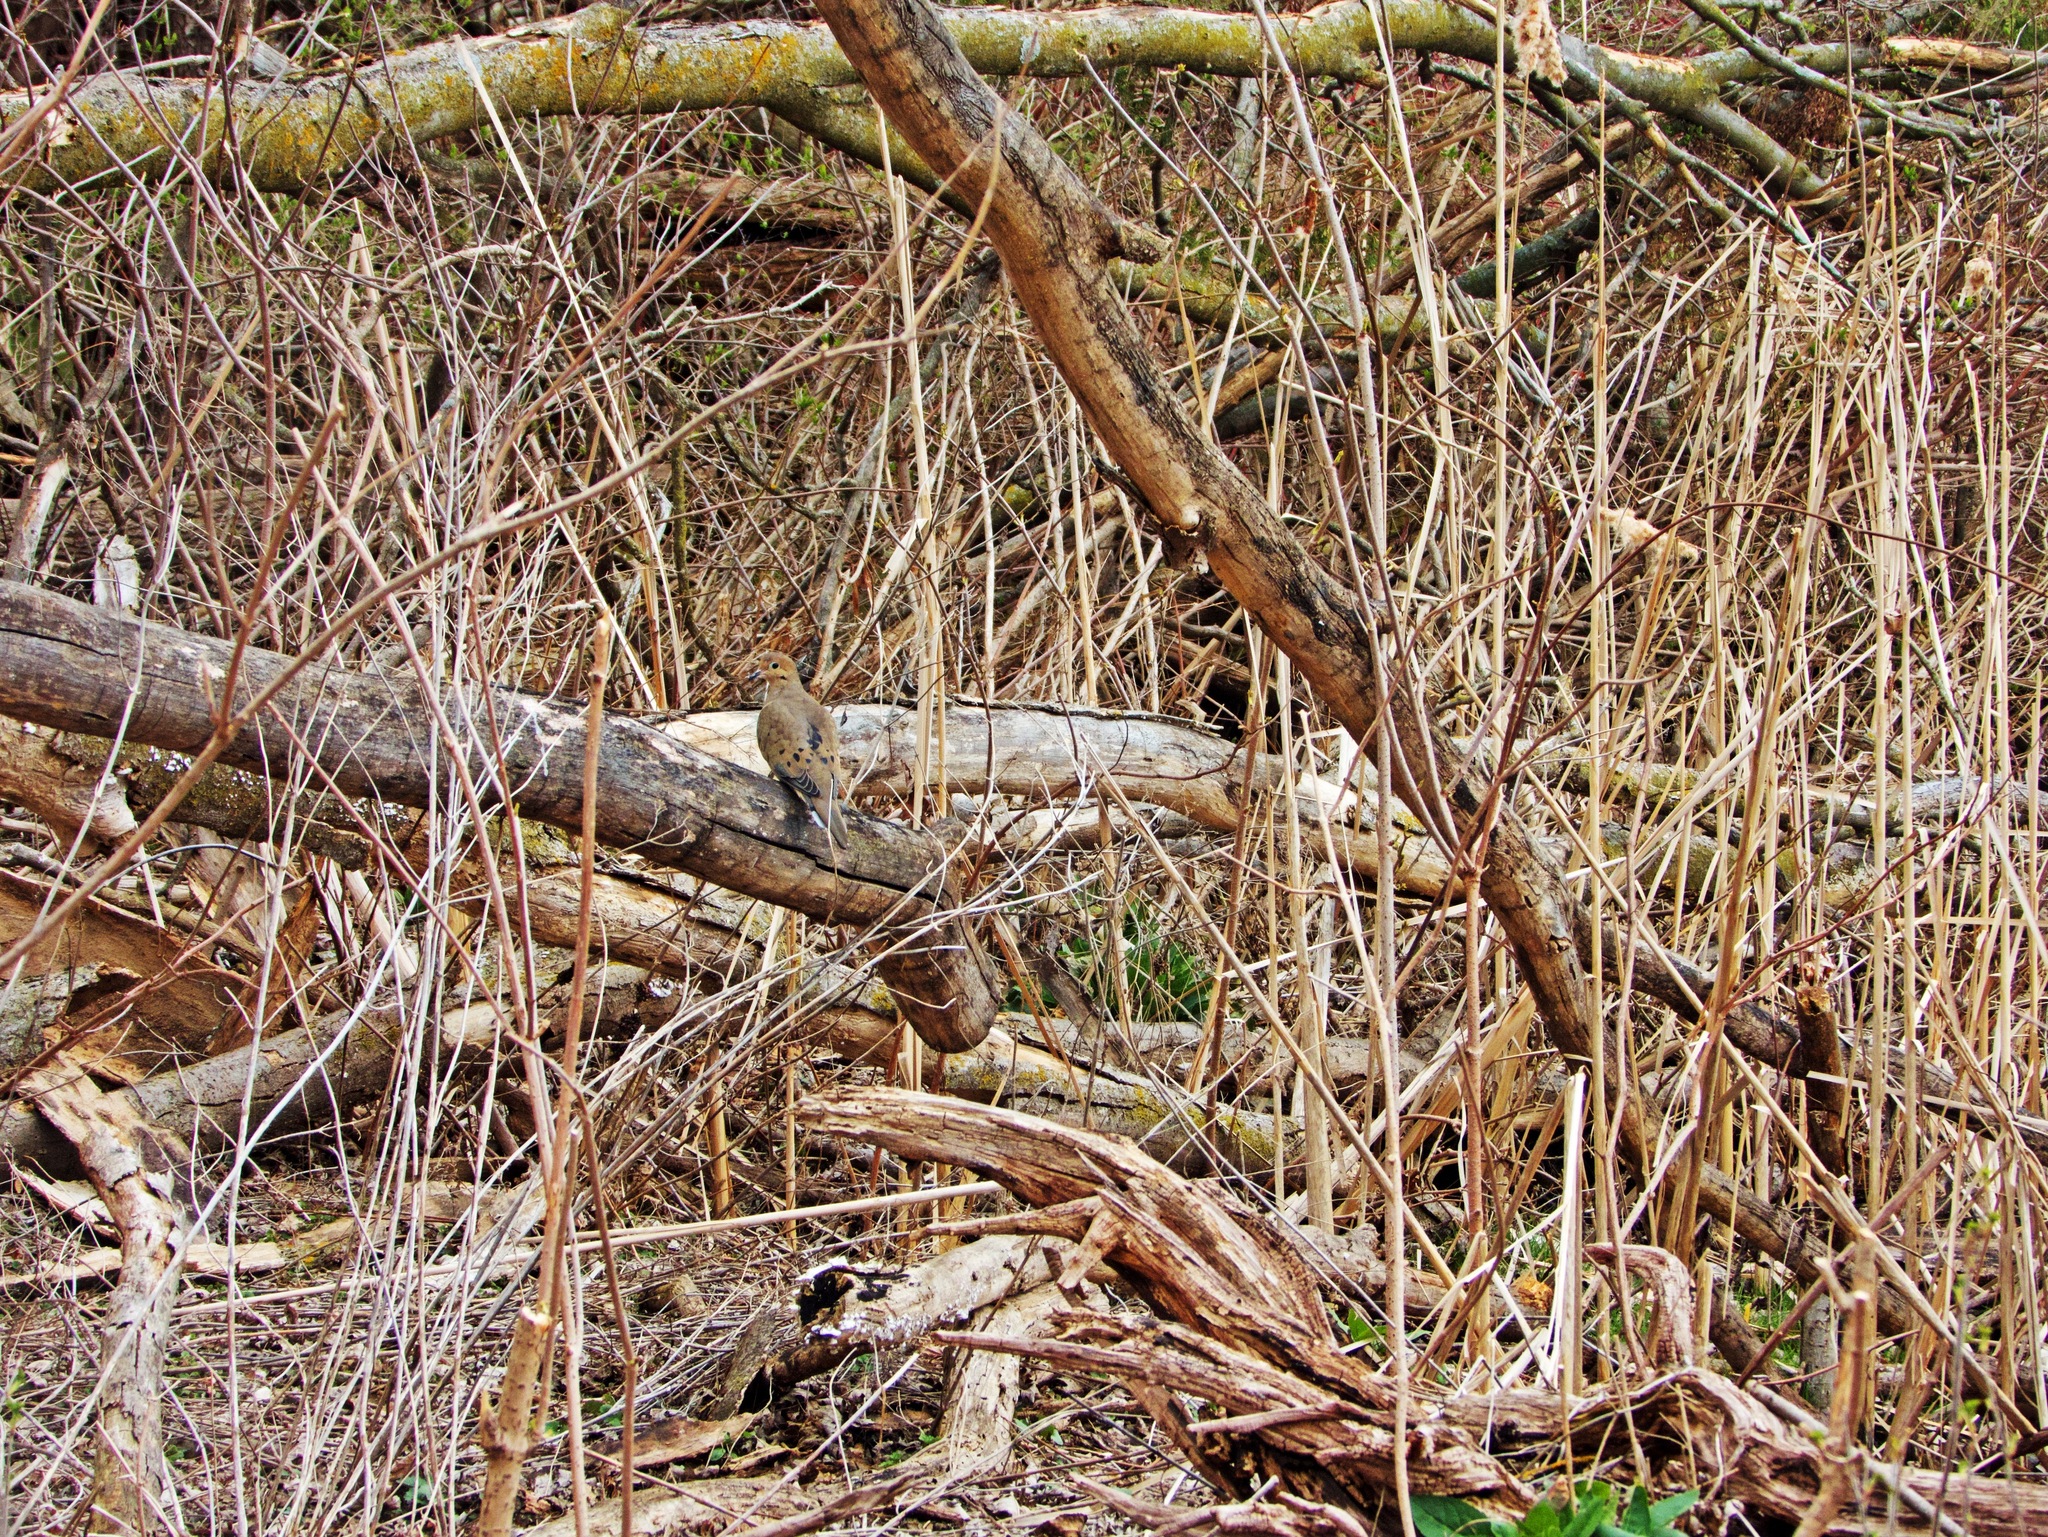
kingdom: Animalia
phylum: Chordata
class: Aves
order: Columbiformes
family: Columbidae
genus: Zenaida
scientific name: Zenaida macroura
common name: Mourning dove
